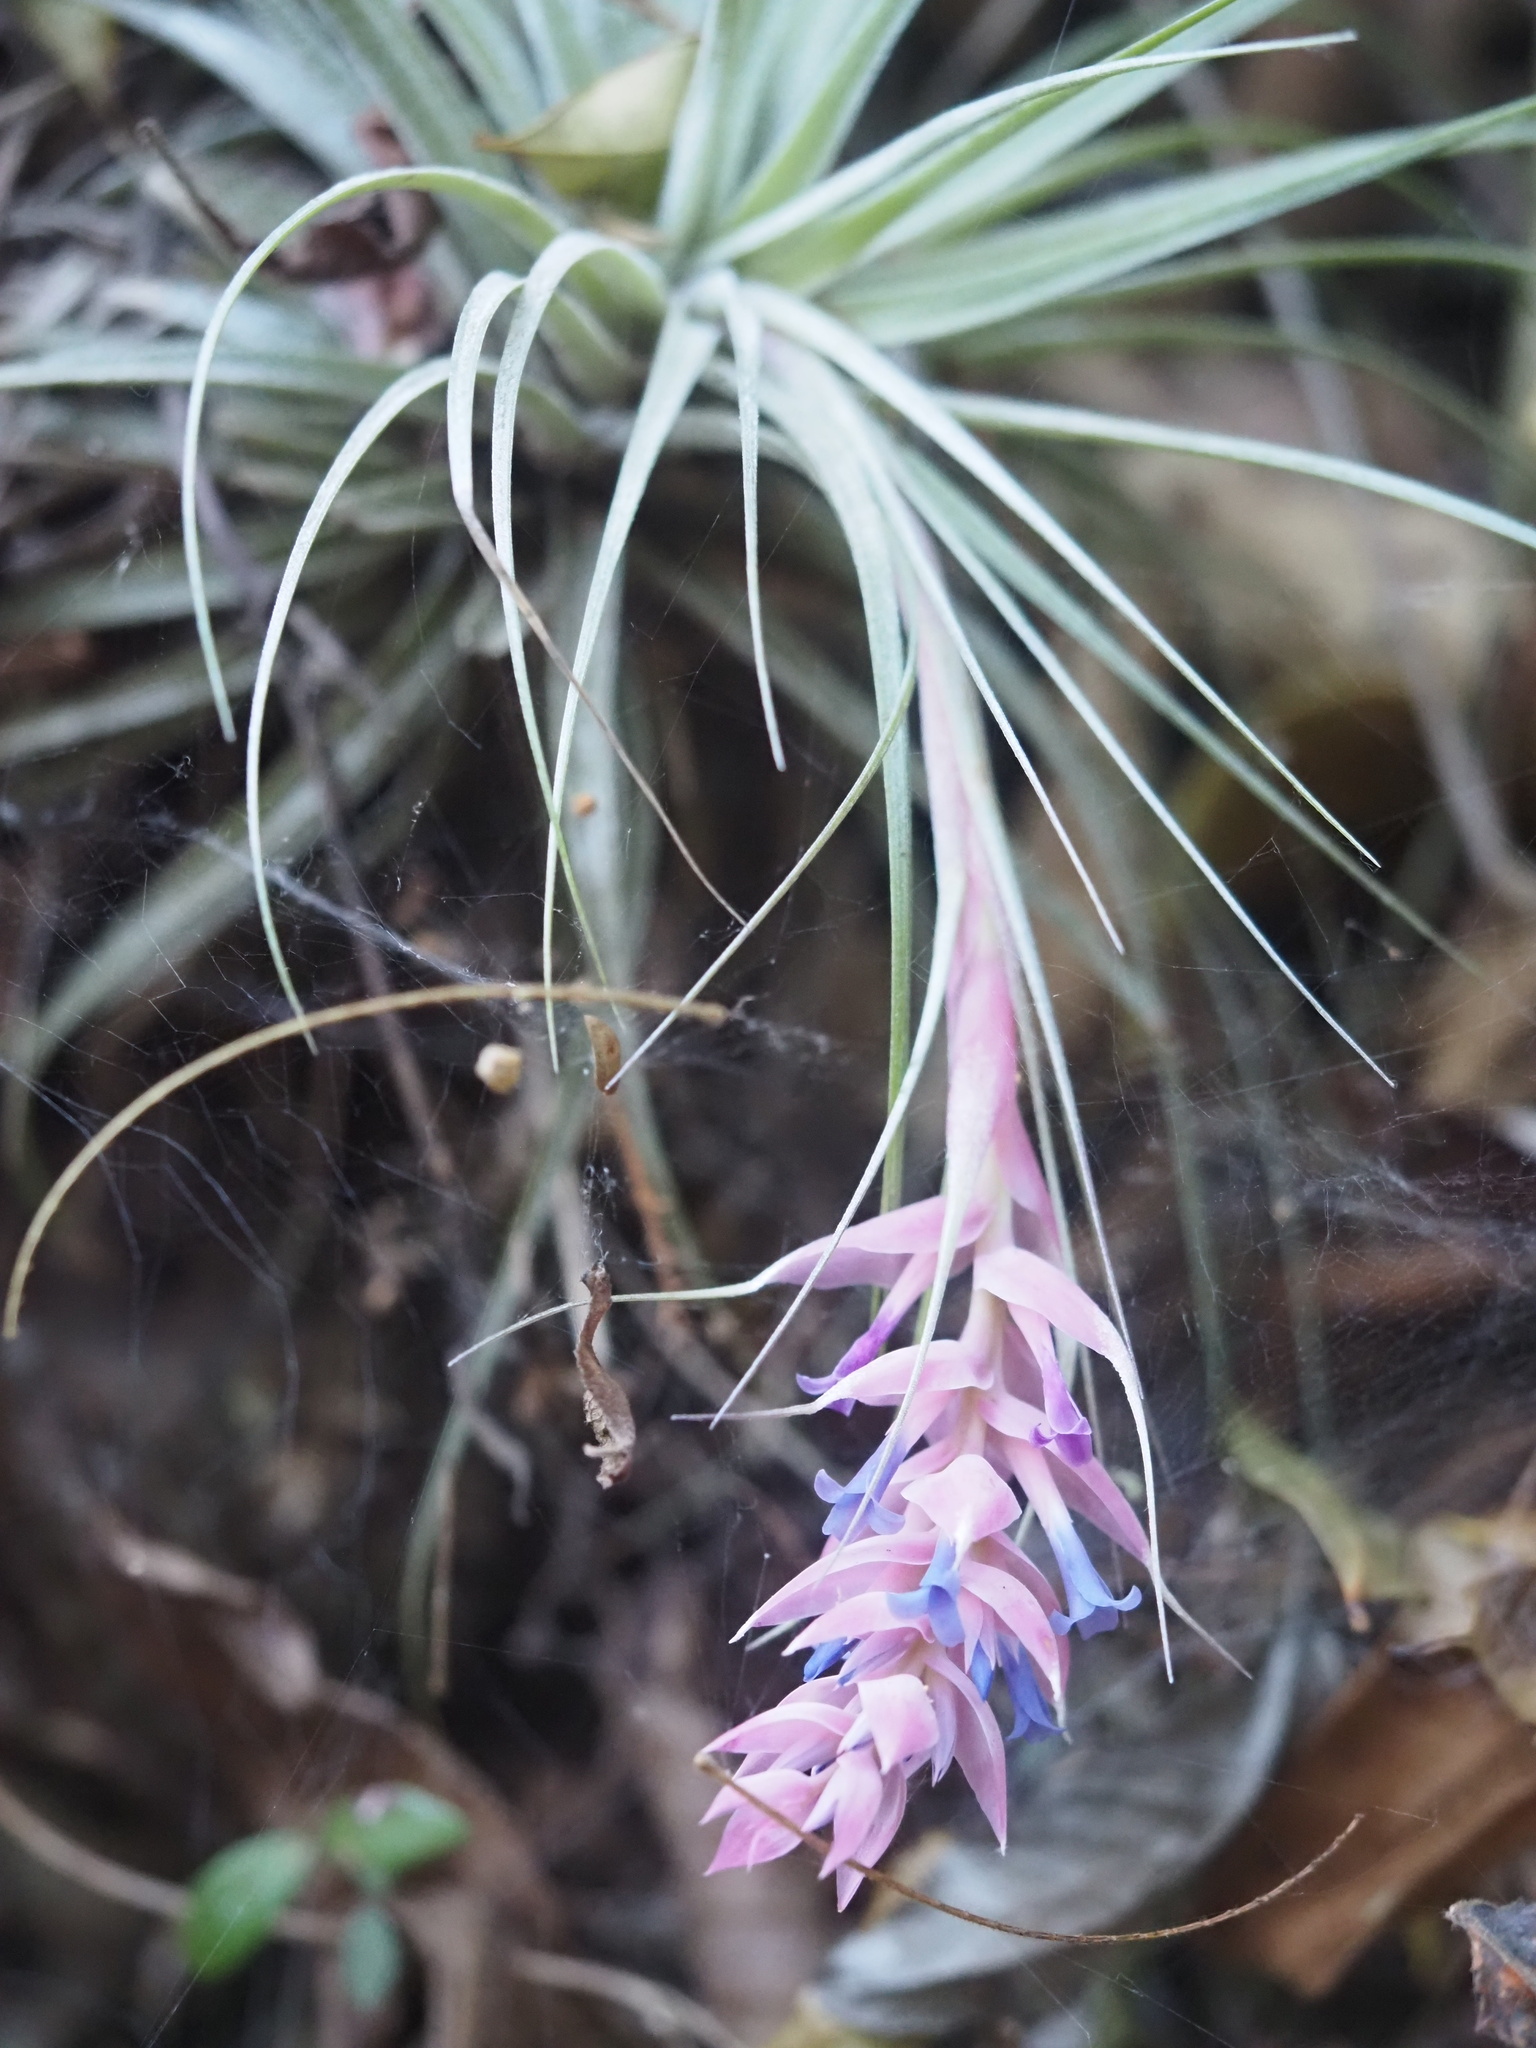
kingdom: Plantae
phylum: Tracheophyta
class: Liliopsida
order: Poales
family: Bromeliaceae
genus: Tillandsia
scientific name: Tillandsia stricta
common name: Airplant
